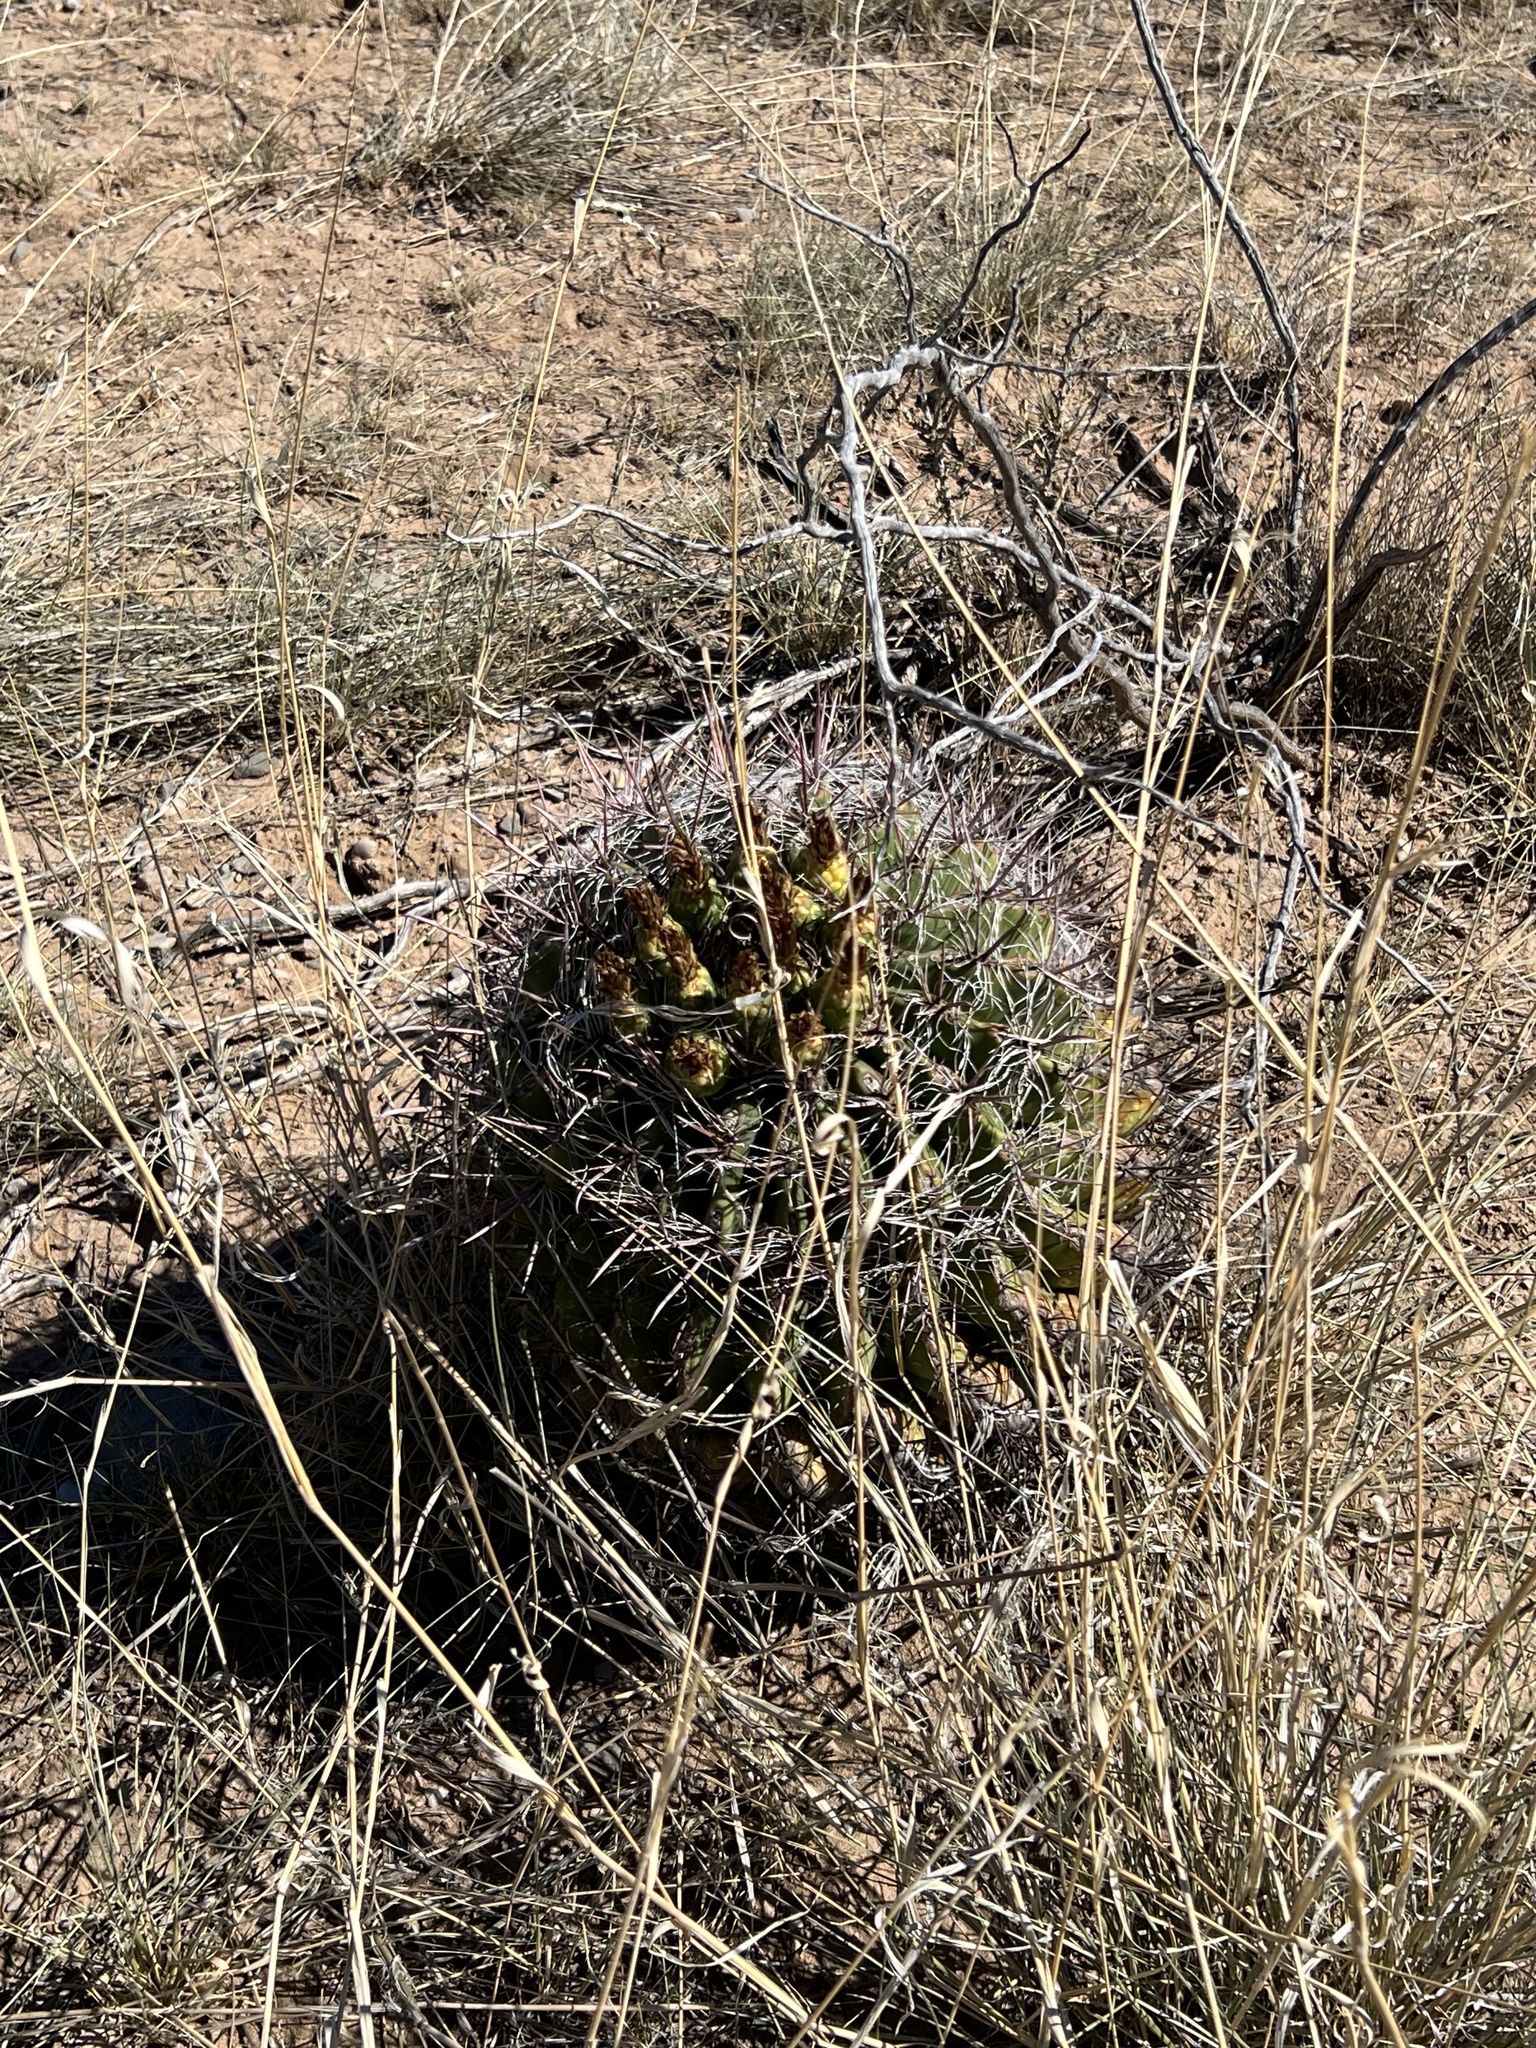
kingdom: Plantae
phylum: Tracheophyta
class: Magnoliopsida
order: Caryophyllales
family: Cactaceae
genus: Ferocactus
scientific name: Ferocactus wislizeni
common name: Candy barrel cactus
